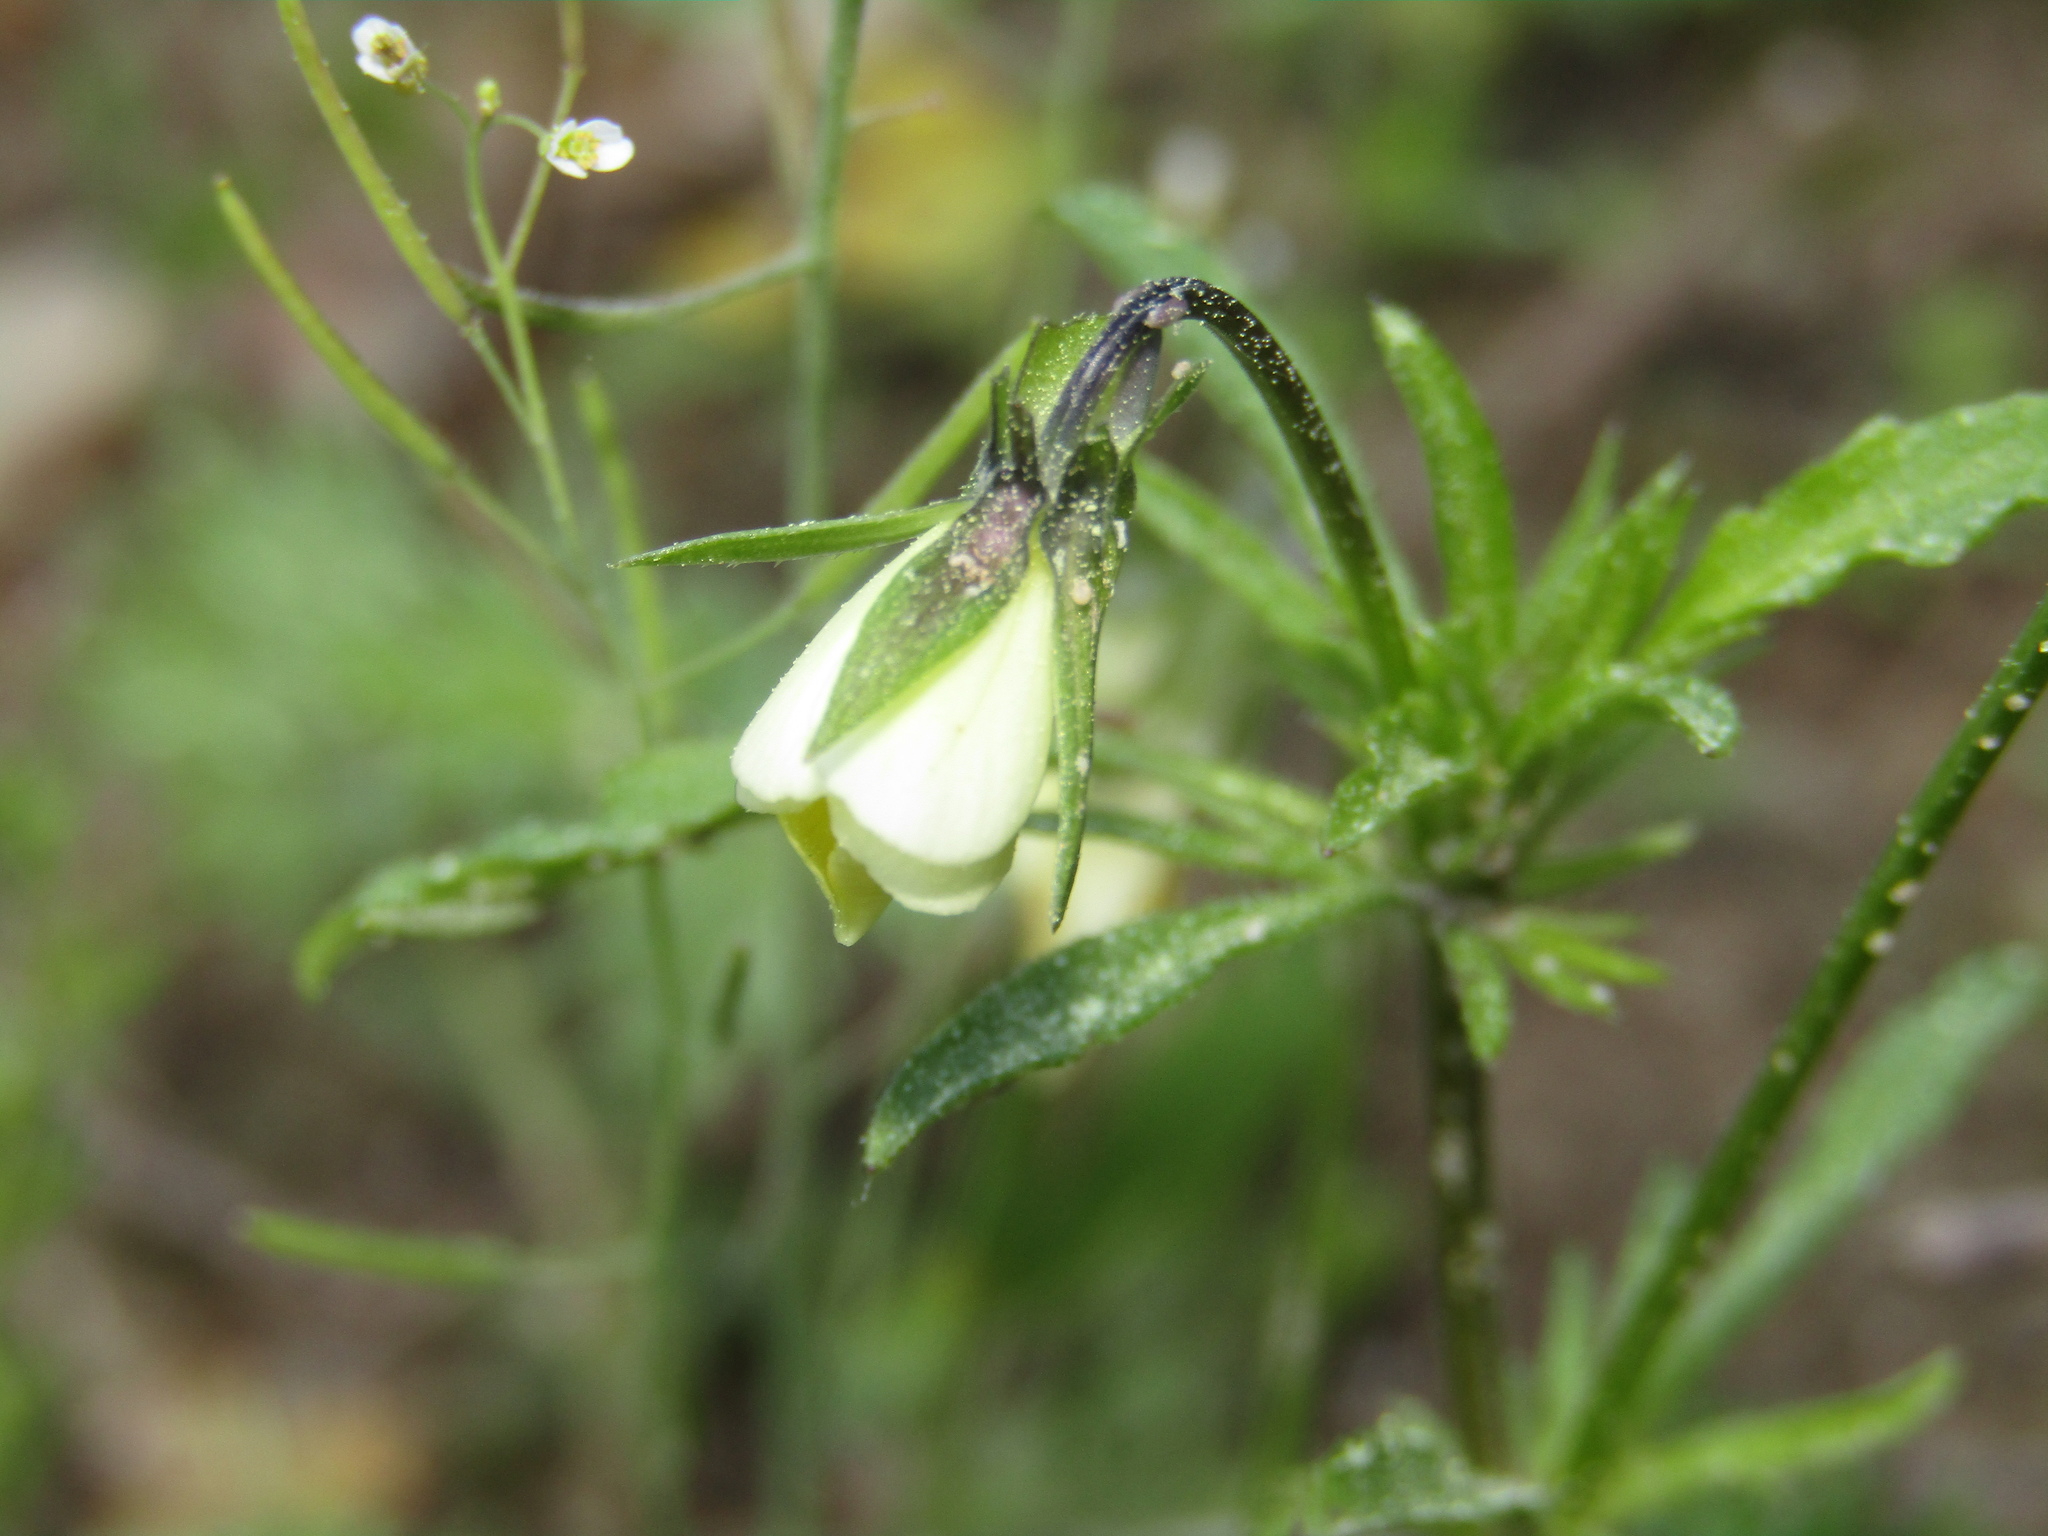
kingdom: Plantae
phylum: Tracheophyta
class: Magnoliopsida
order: Malpighiales
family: Violaceae
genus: Viola
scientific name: Viola arvensis
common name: Field pansy
